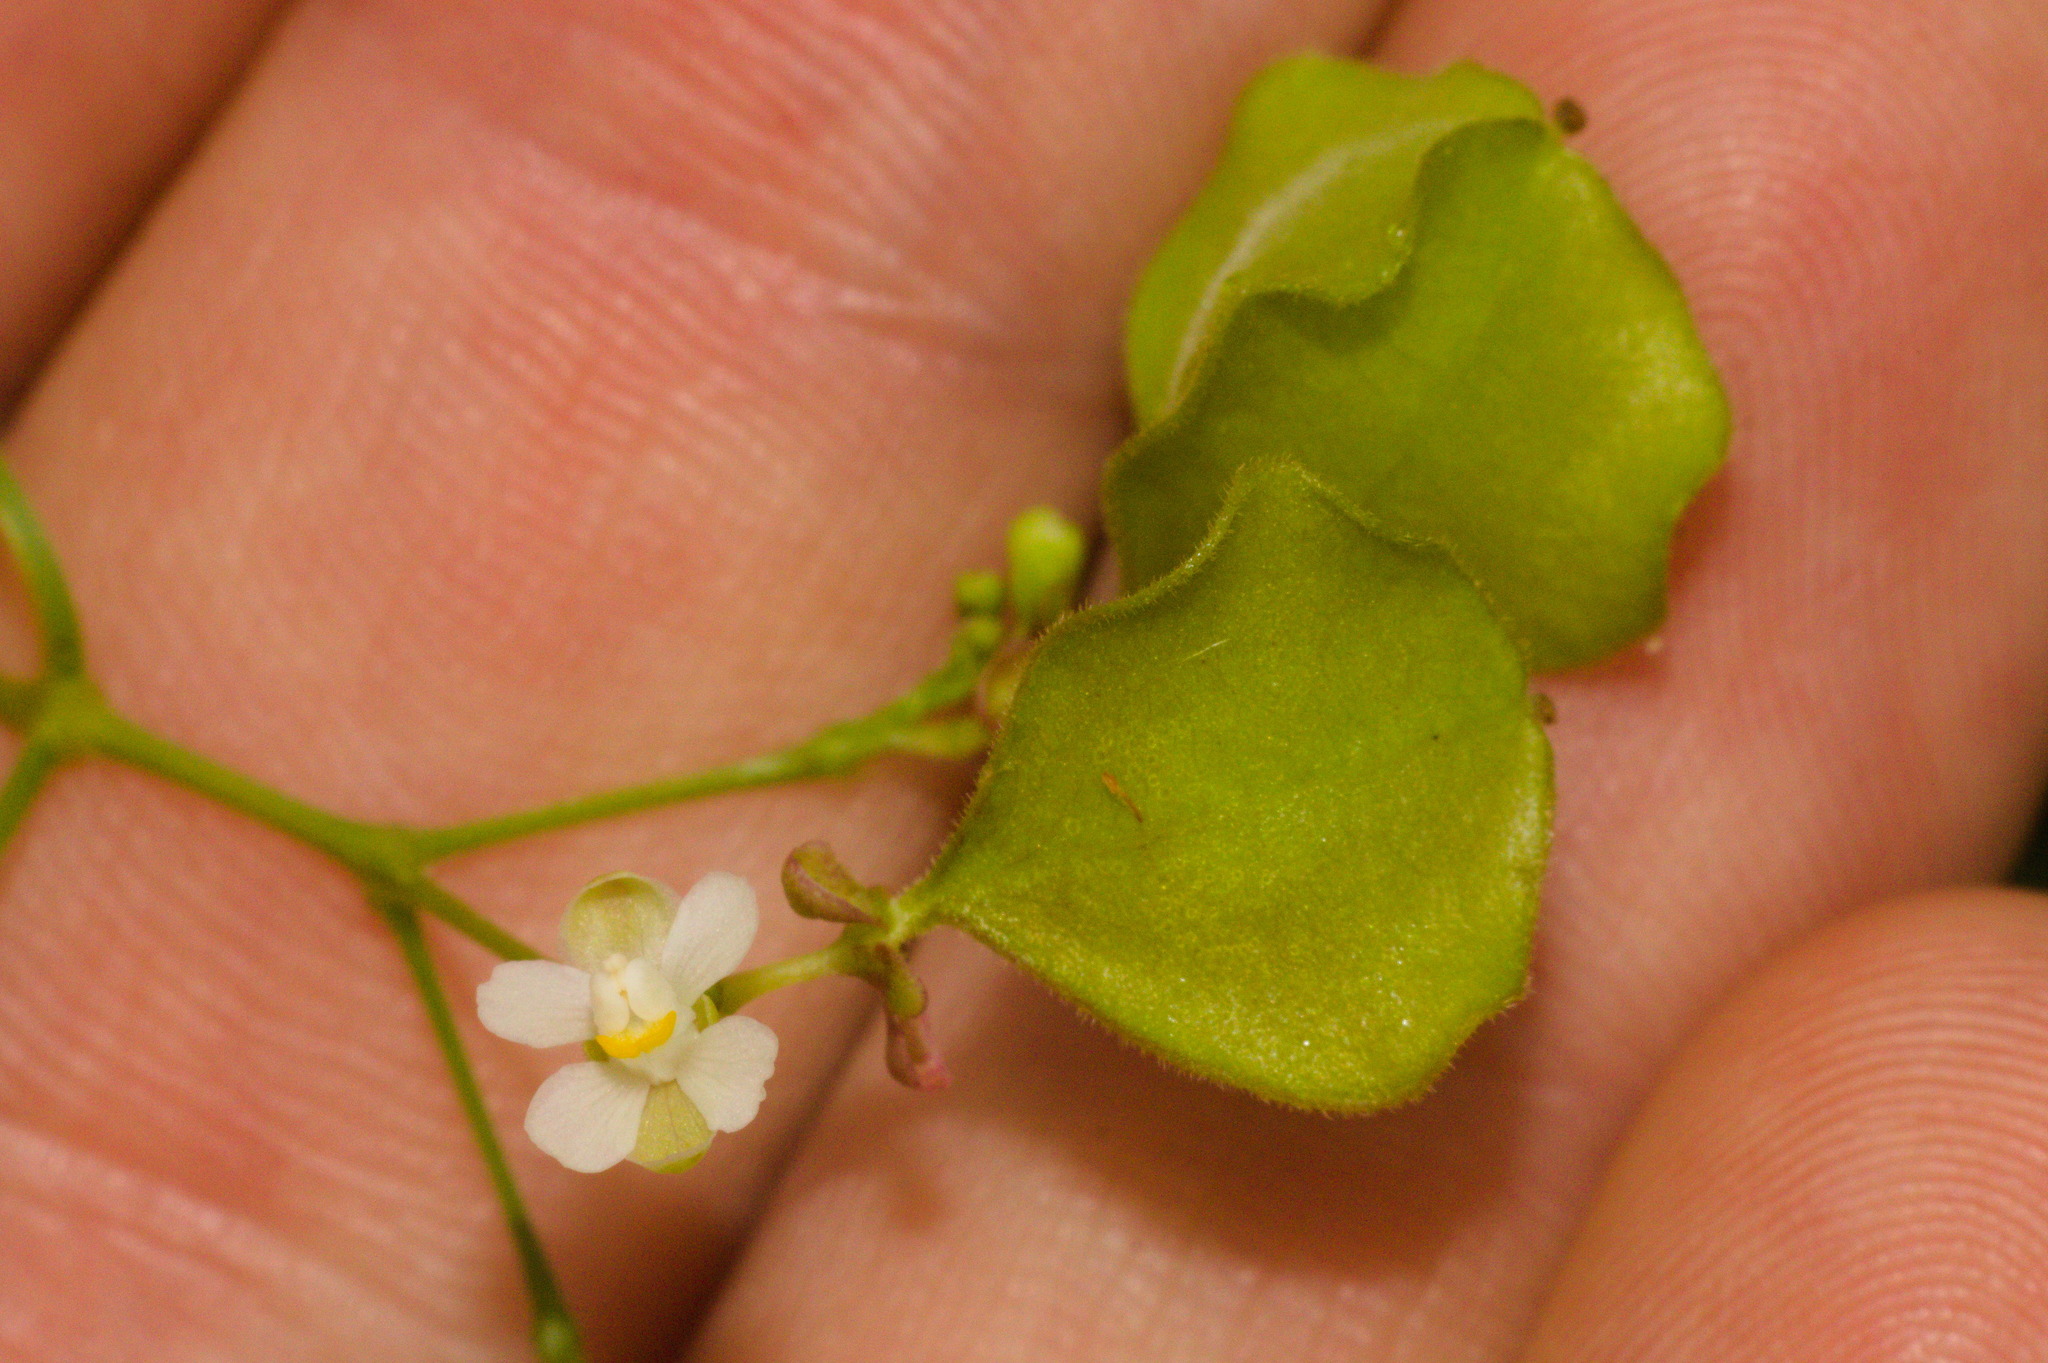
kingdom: Plantae
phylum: Tracheophyta
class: Magnoliopsida
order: Sapindales
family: Sapindaceae
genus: Cardiospermum
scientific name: Cardiospermum halicacabum
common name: Balloon vine
